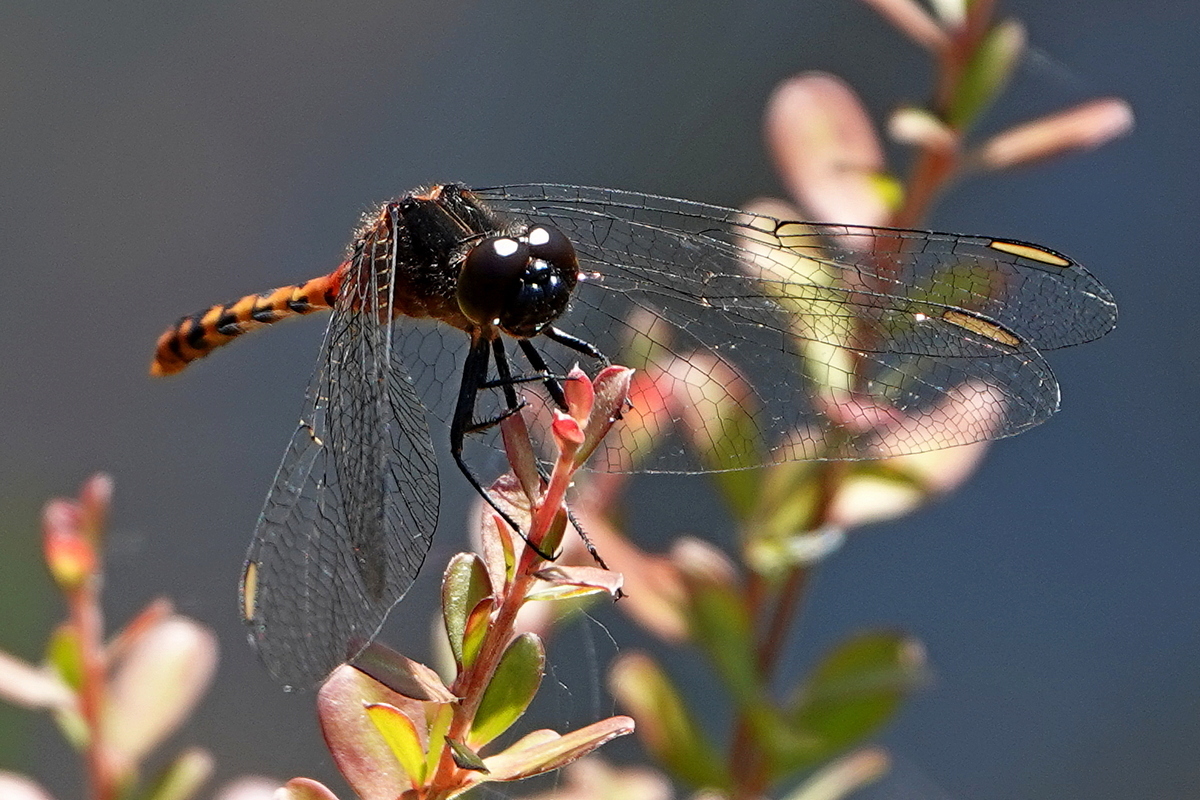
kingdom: Animalia
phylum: Arthropoda
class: Insecta
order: Odonata
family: Libellulidae
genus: Diplacodes
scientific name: Diplacodes melanopsis
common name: Black-faced percher
